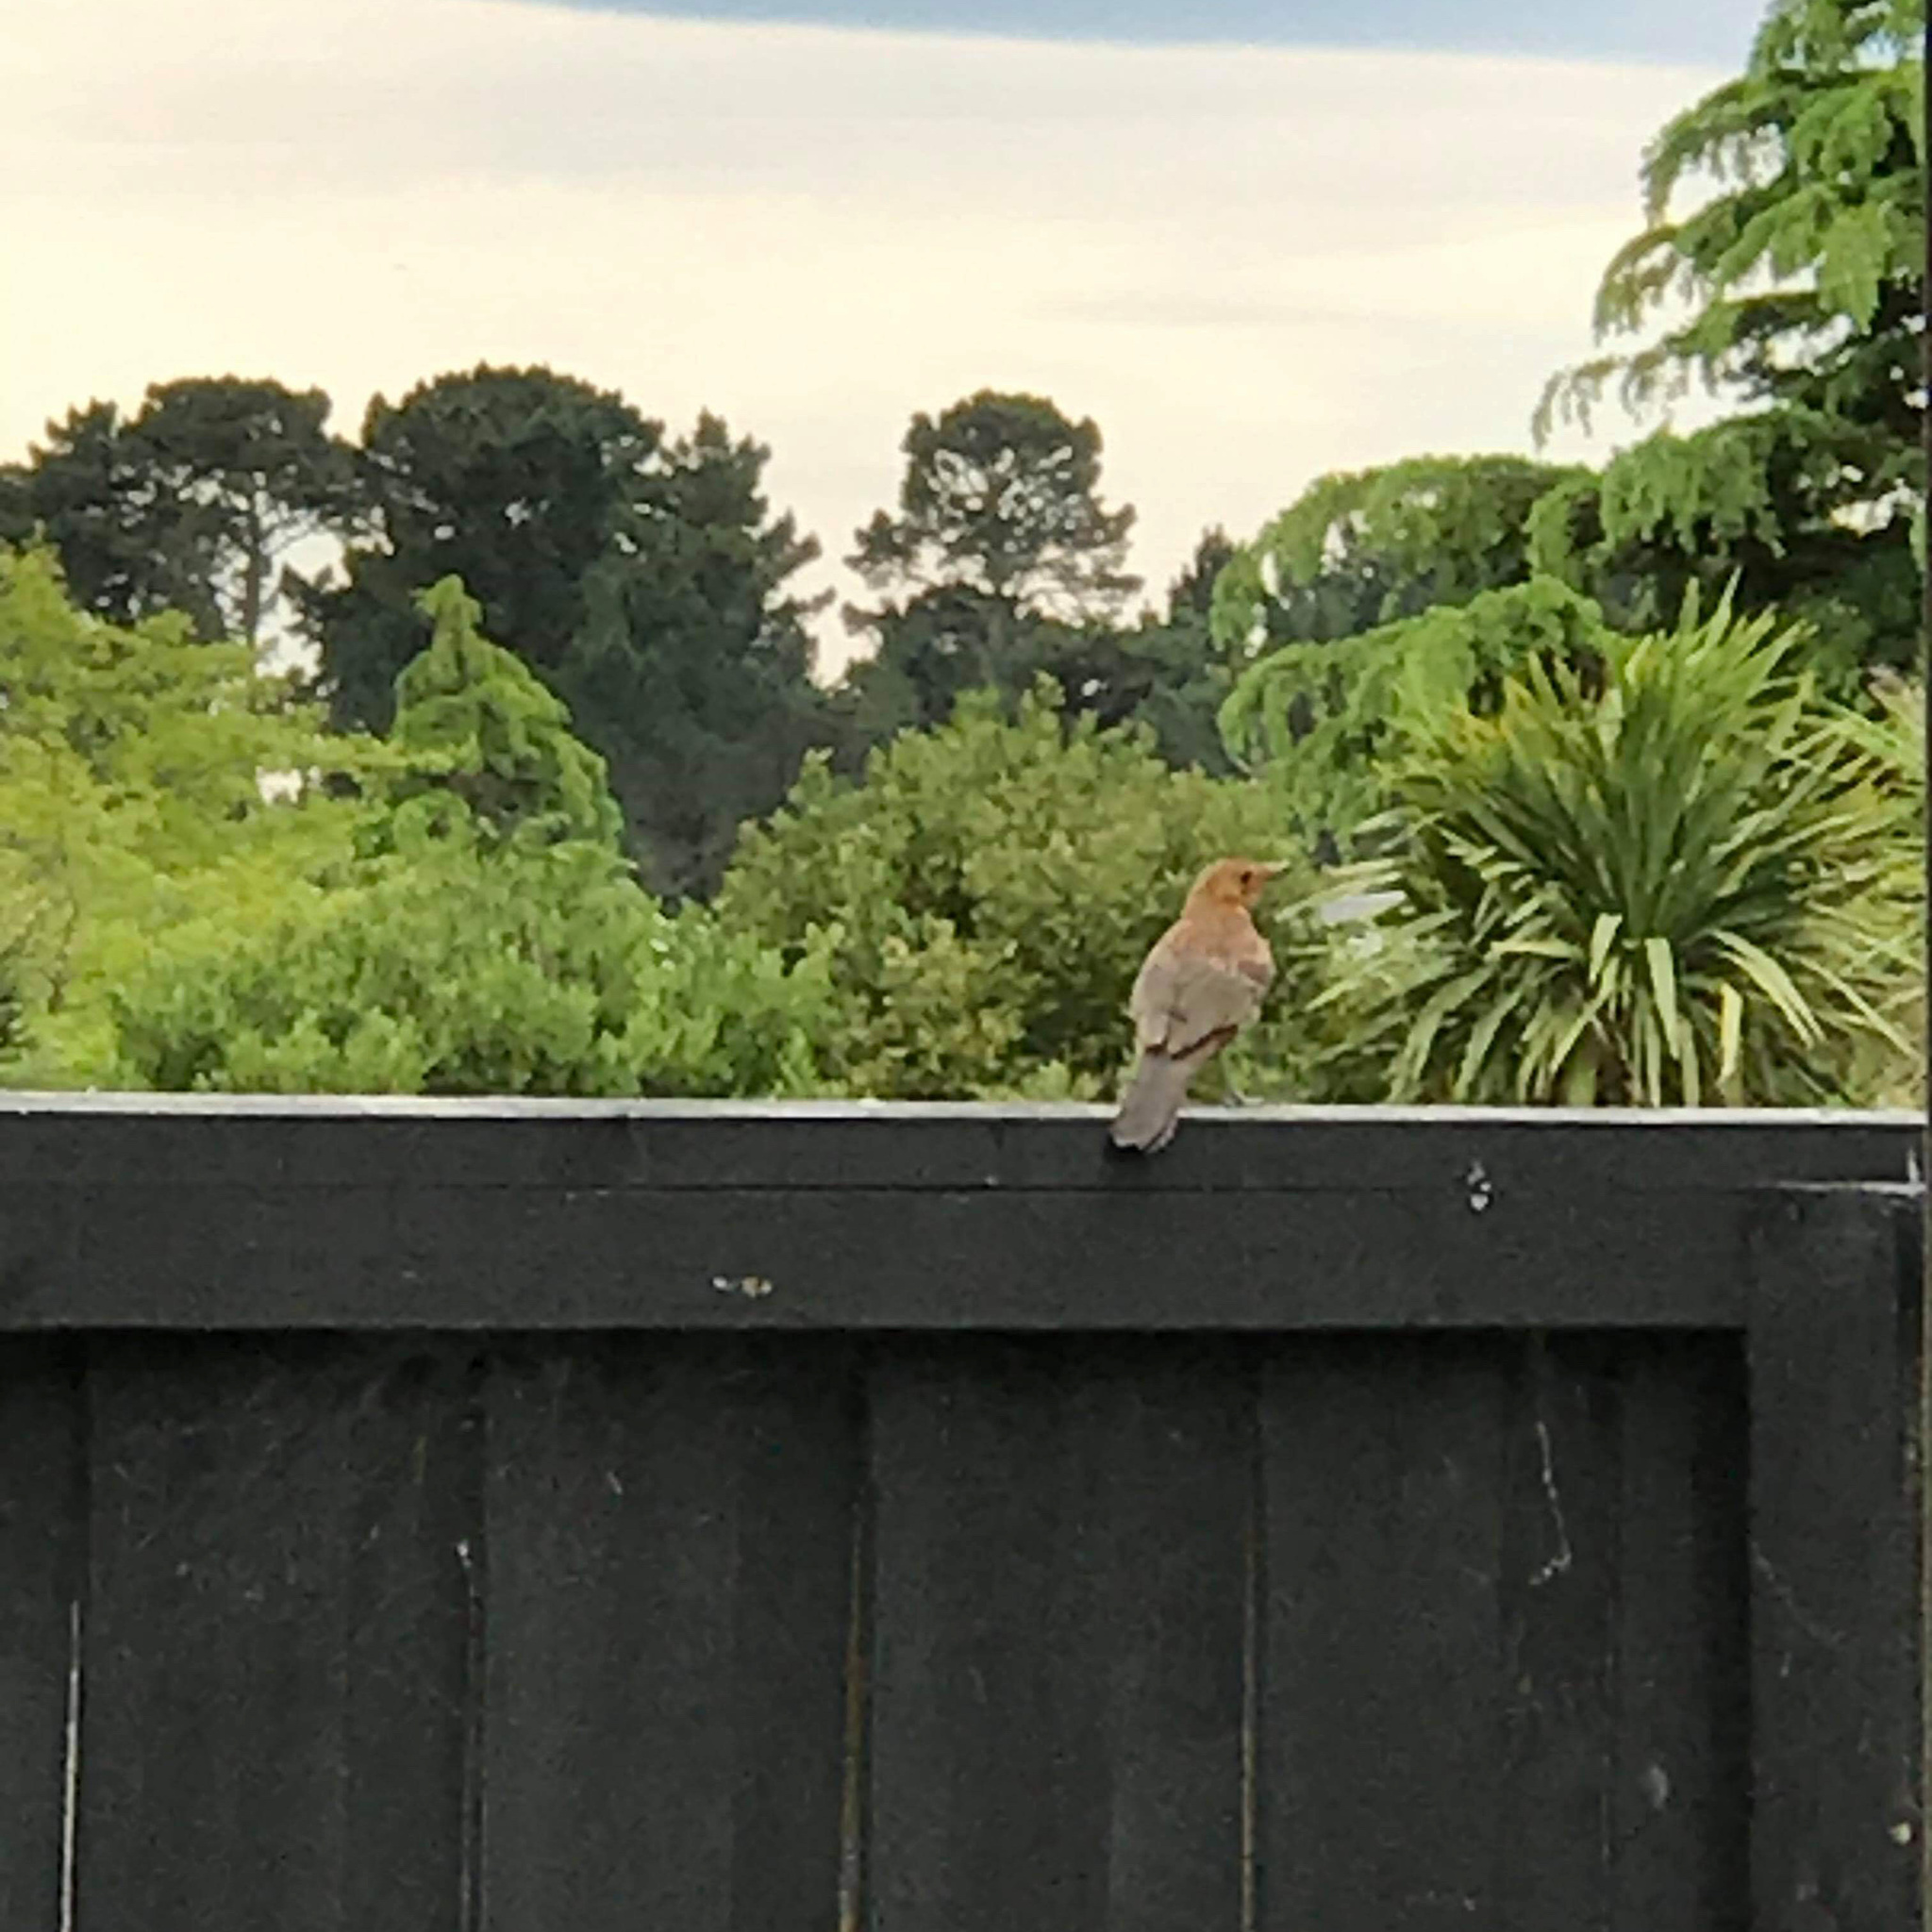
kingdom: Animalia
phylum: Chordata
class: Aves
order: Passeriformes
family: Turdidae
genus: Turdus
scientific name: Turdus merula
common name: Common blackbird
